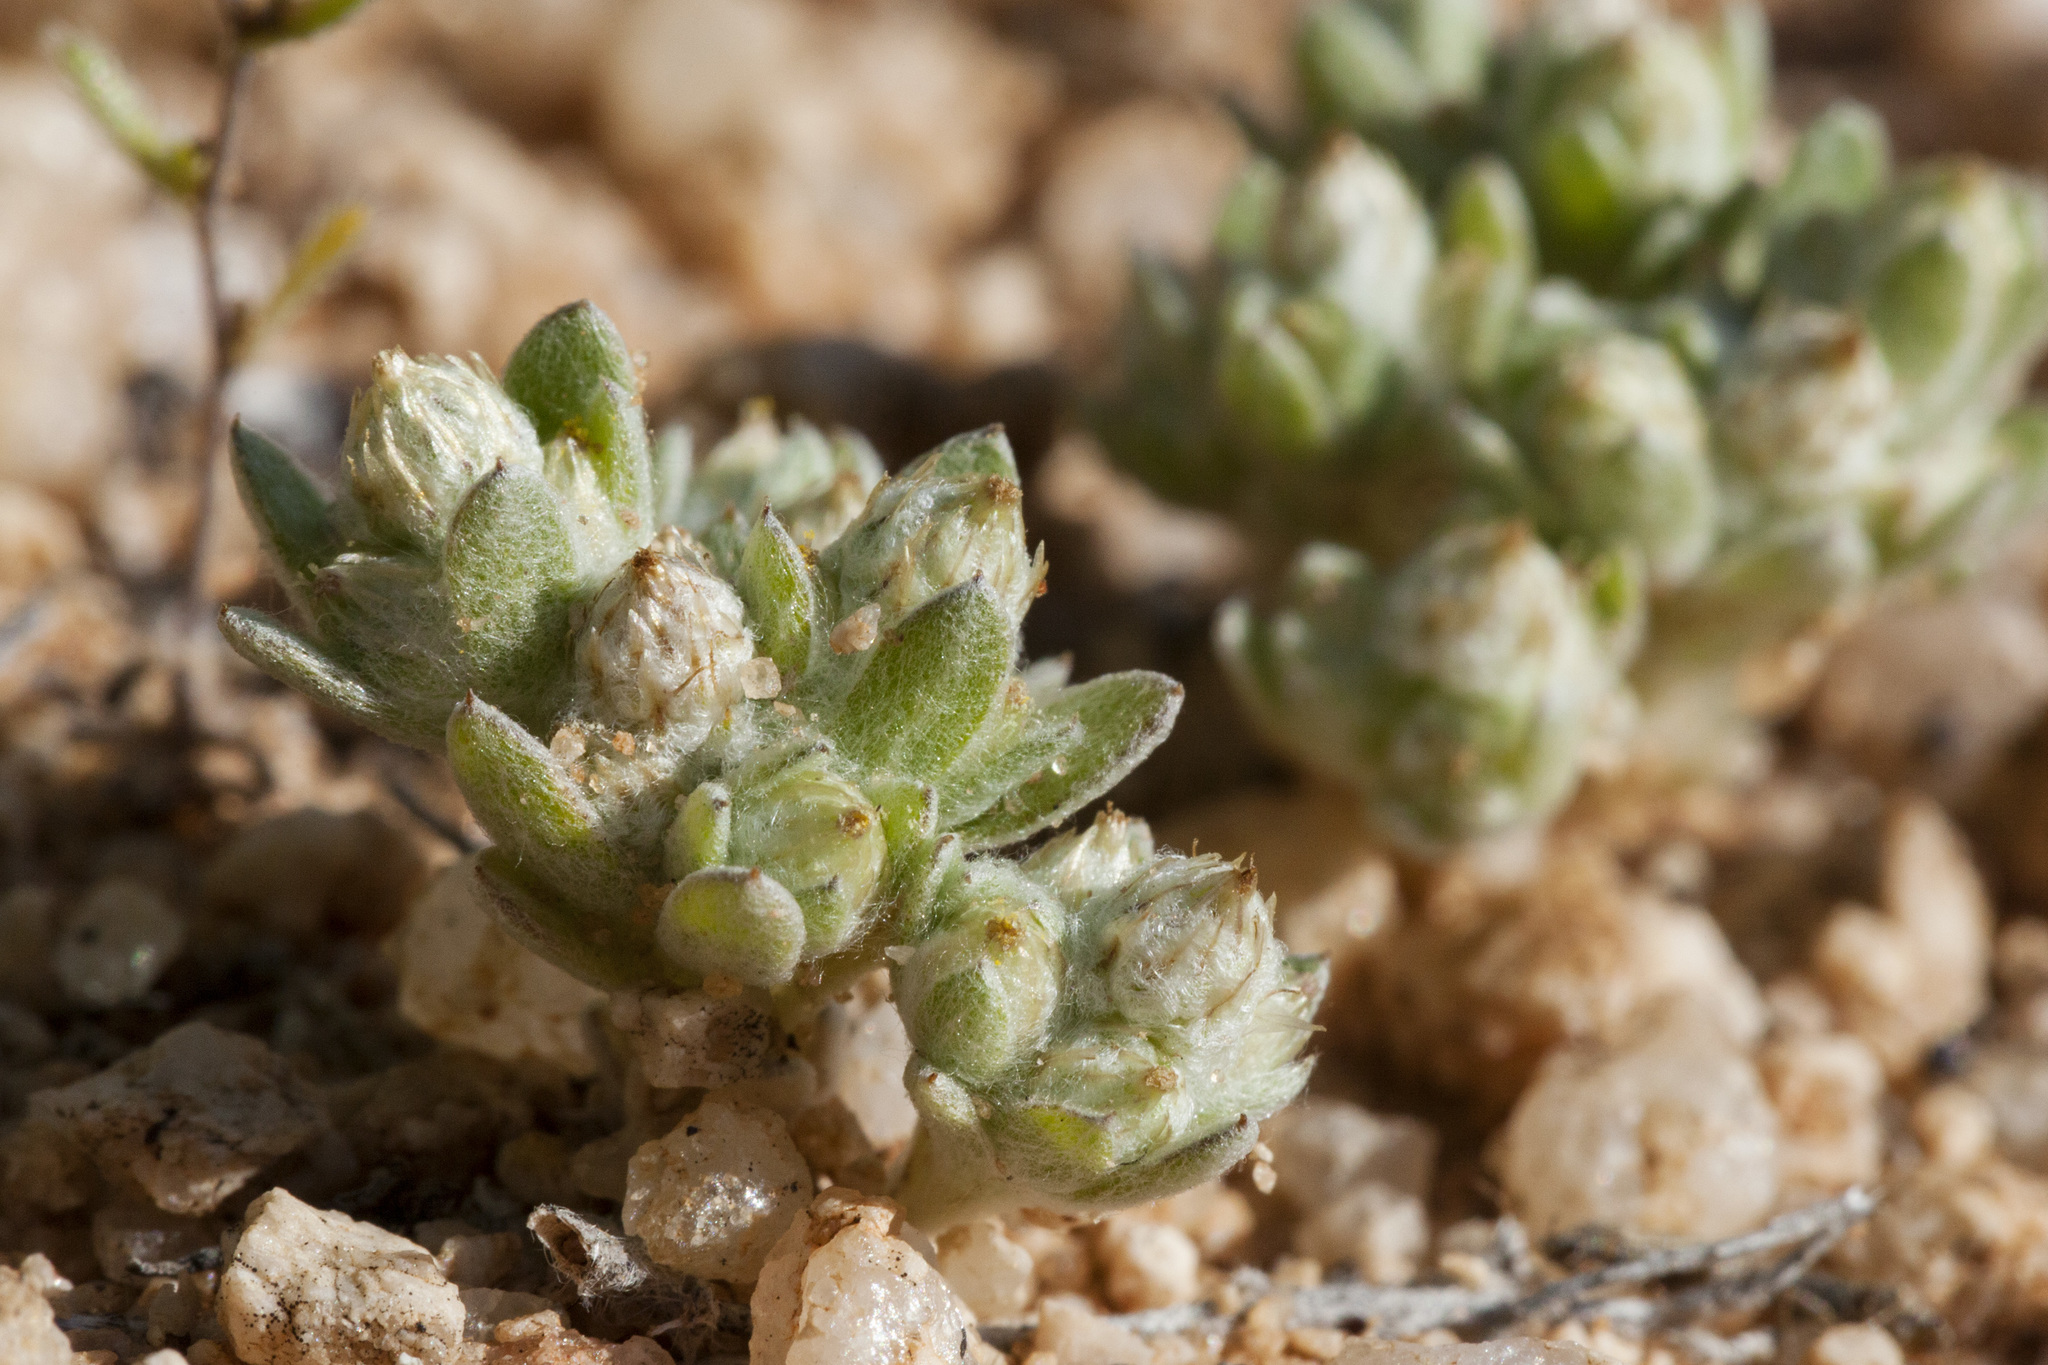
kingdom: Plantae
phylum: Tracheophyta
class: Magnoliopsida
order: Asterales
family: Asteraceae
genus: Stylocline
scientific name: Stylocline sonorensis
